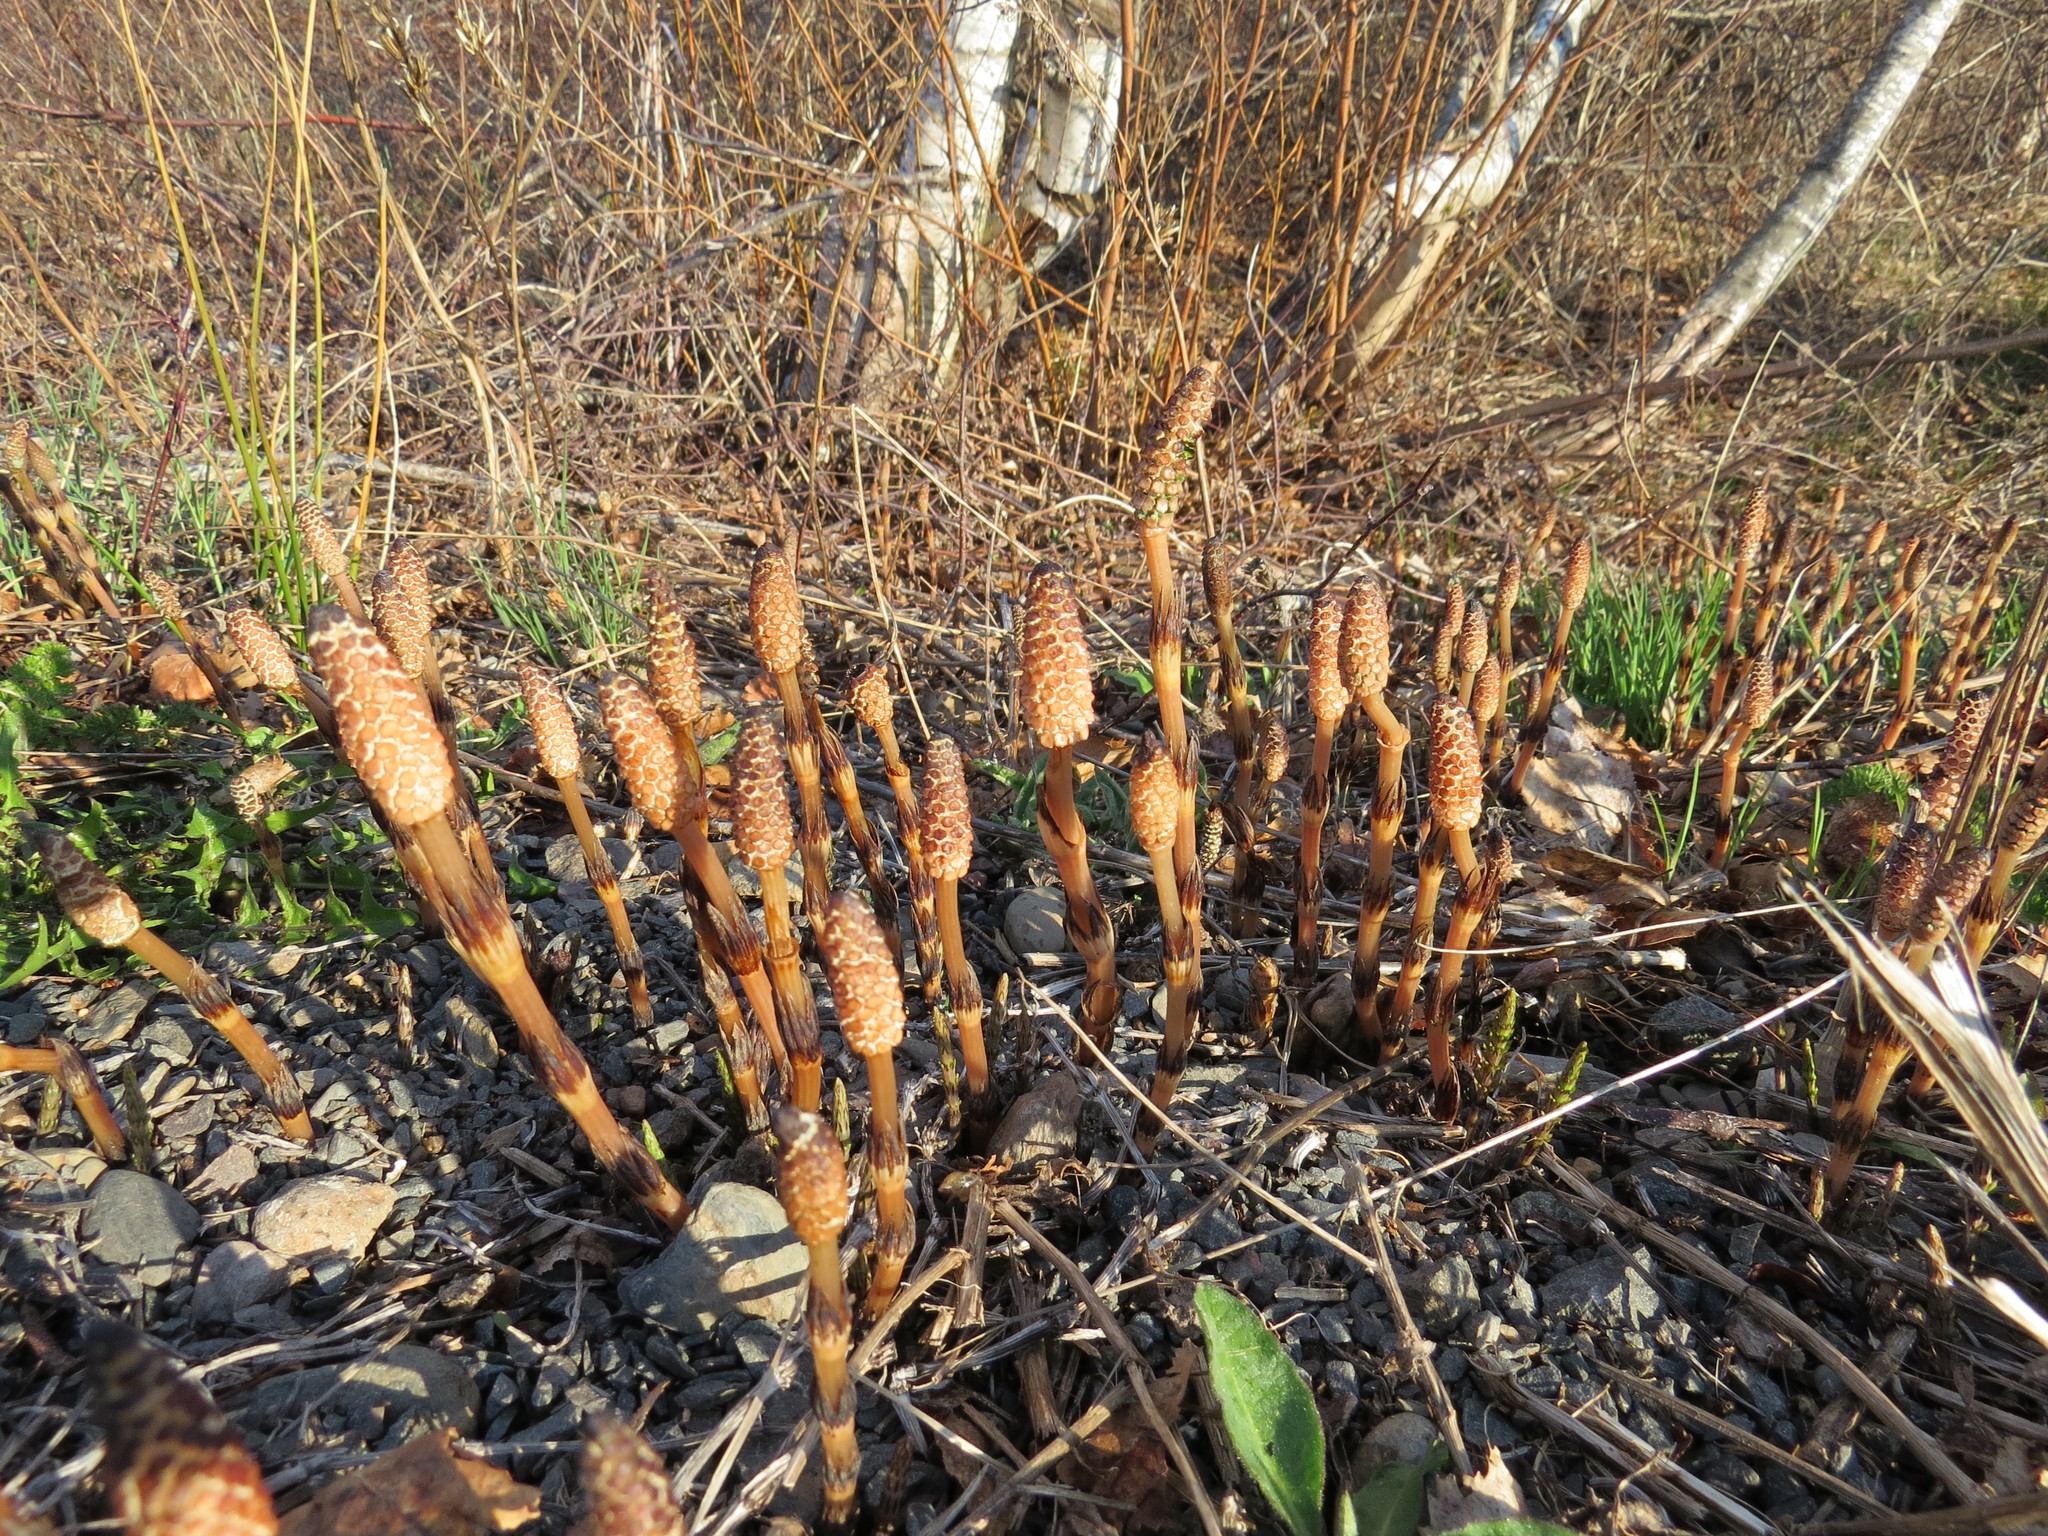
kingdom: Plantae
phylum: Tracheophyta
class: Polypodiopsida
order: Equisetales
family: Equisetaceae
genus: Equisetum
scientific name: Equisetum arvense
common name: Field horsetail
